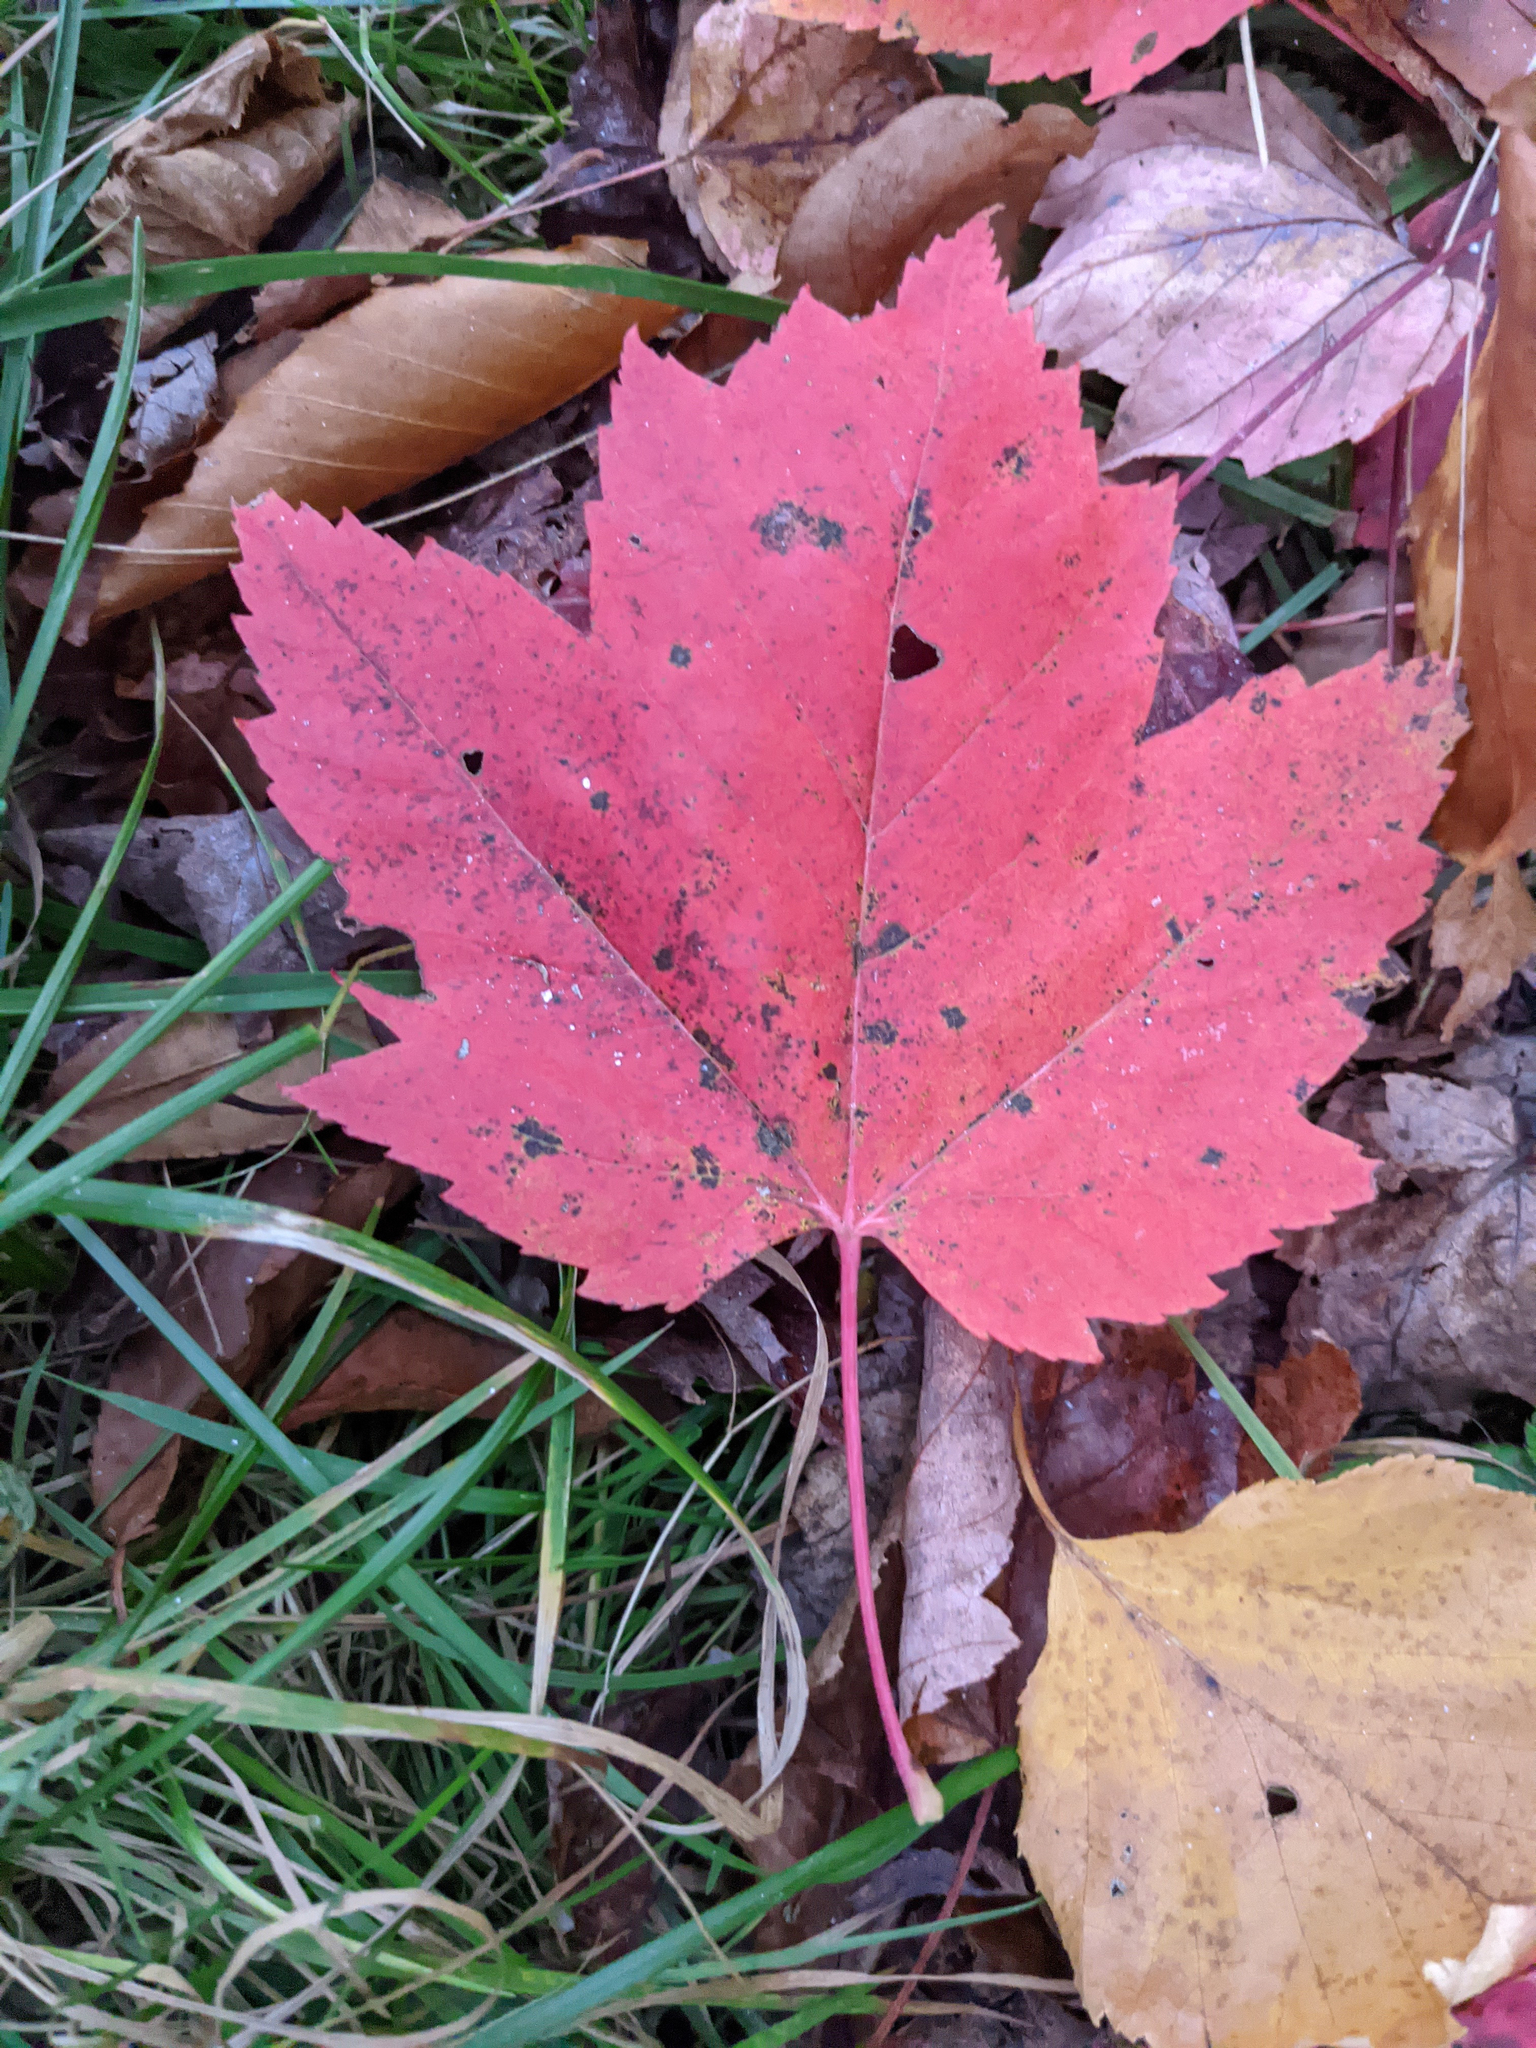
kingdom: Plantae
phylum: Tracheophyta
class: Magnoliopsida
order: Sapindales
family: Sapindaceae
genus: Acer
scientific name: Acer rubrum
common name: Red maple
